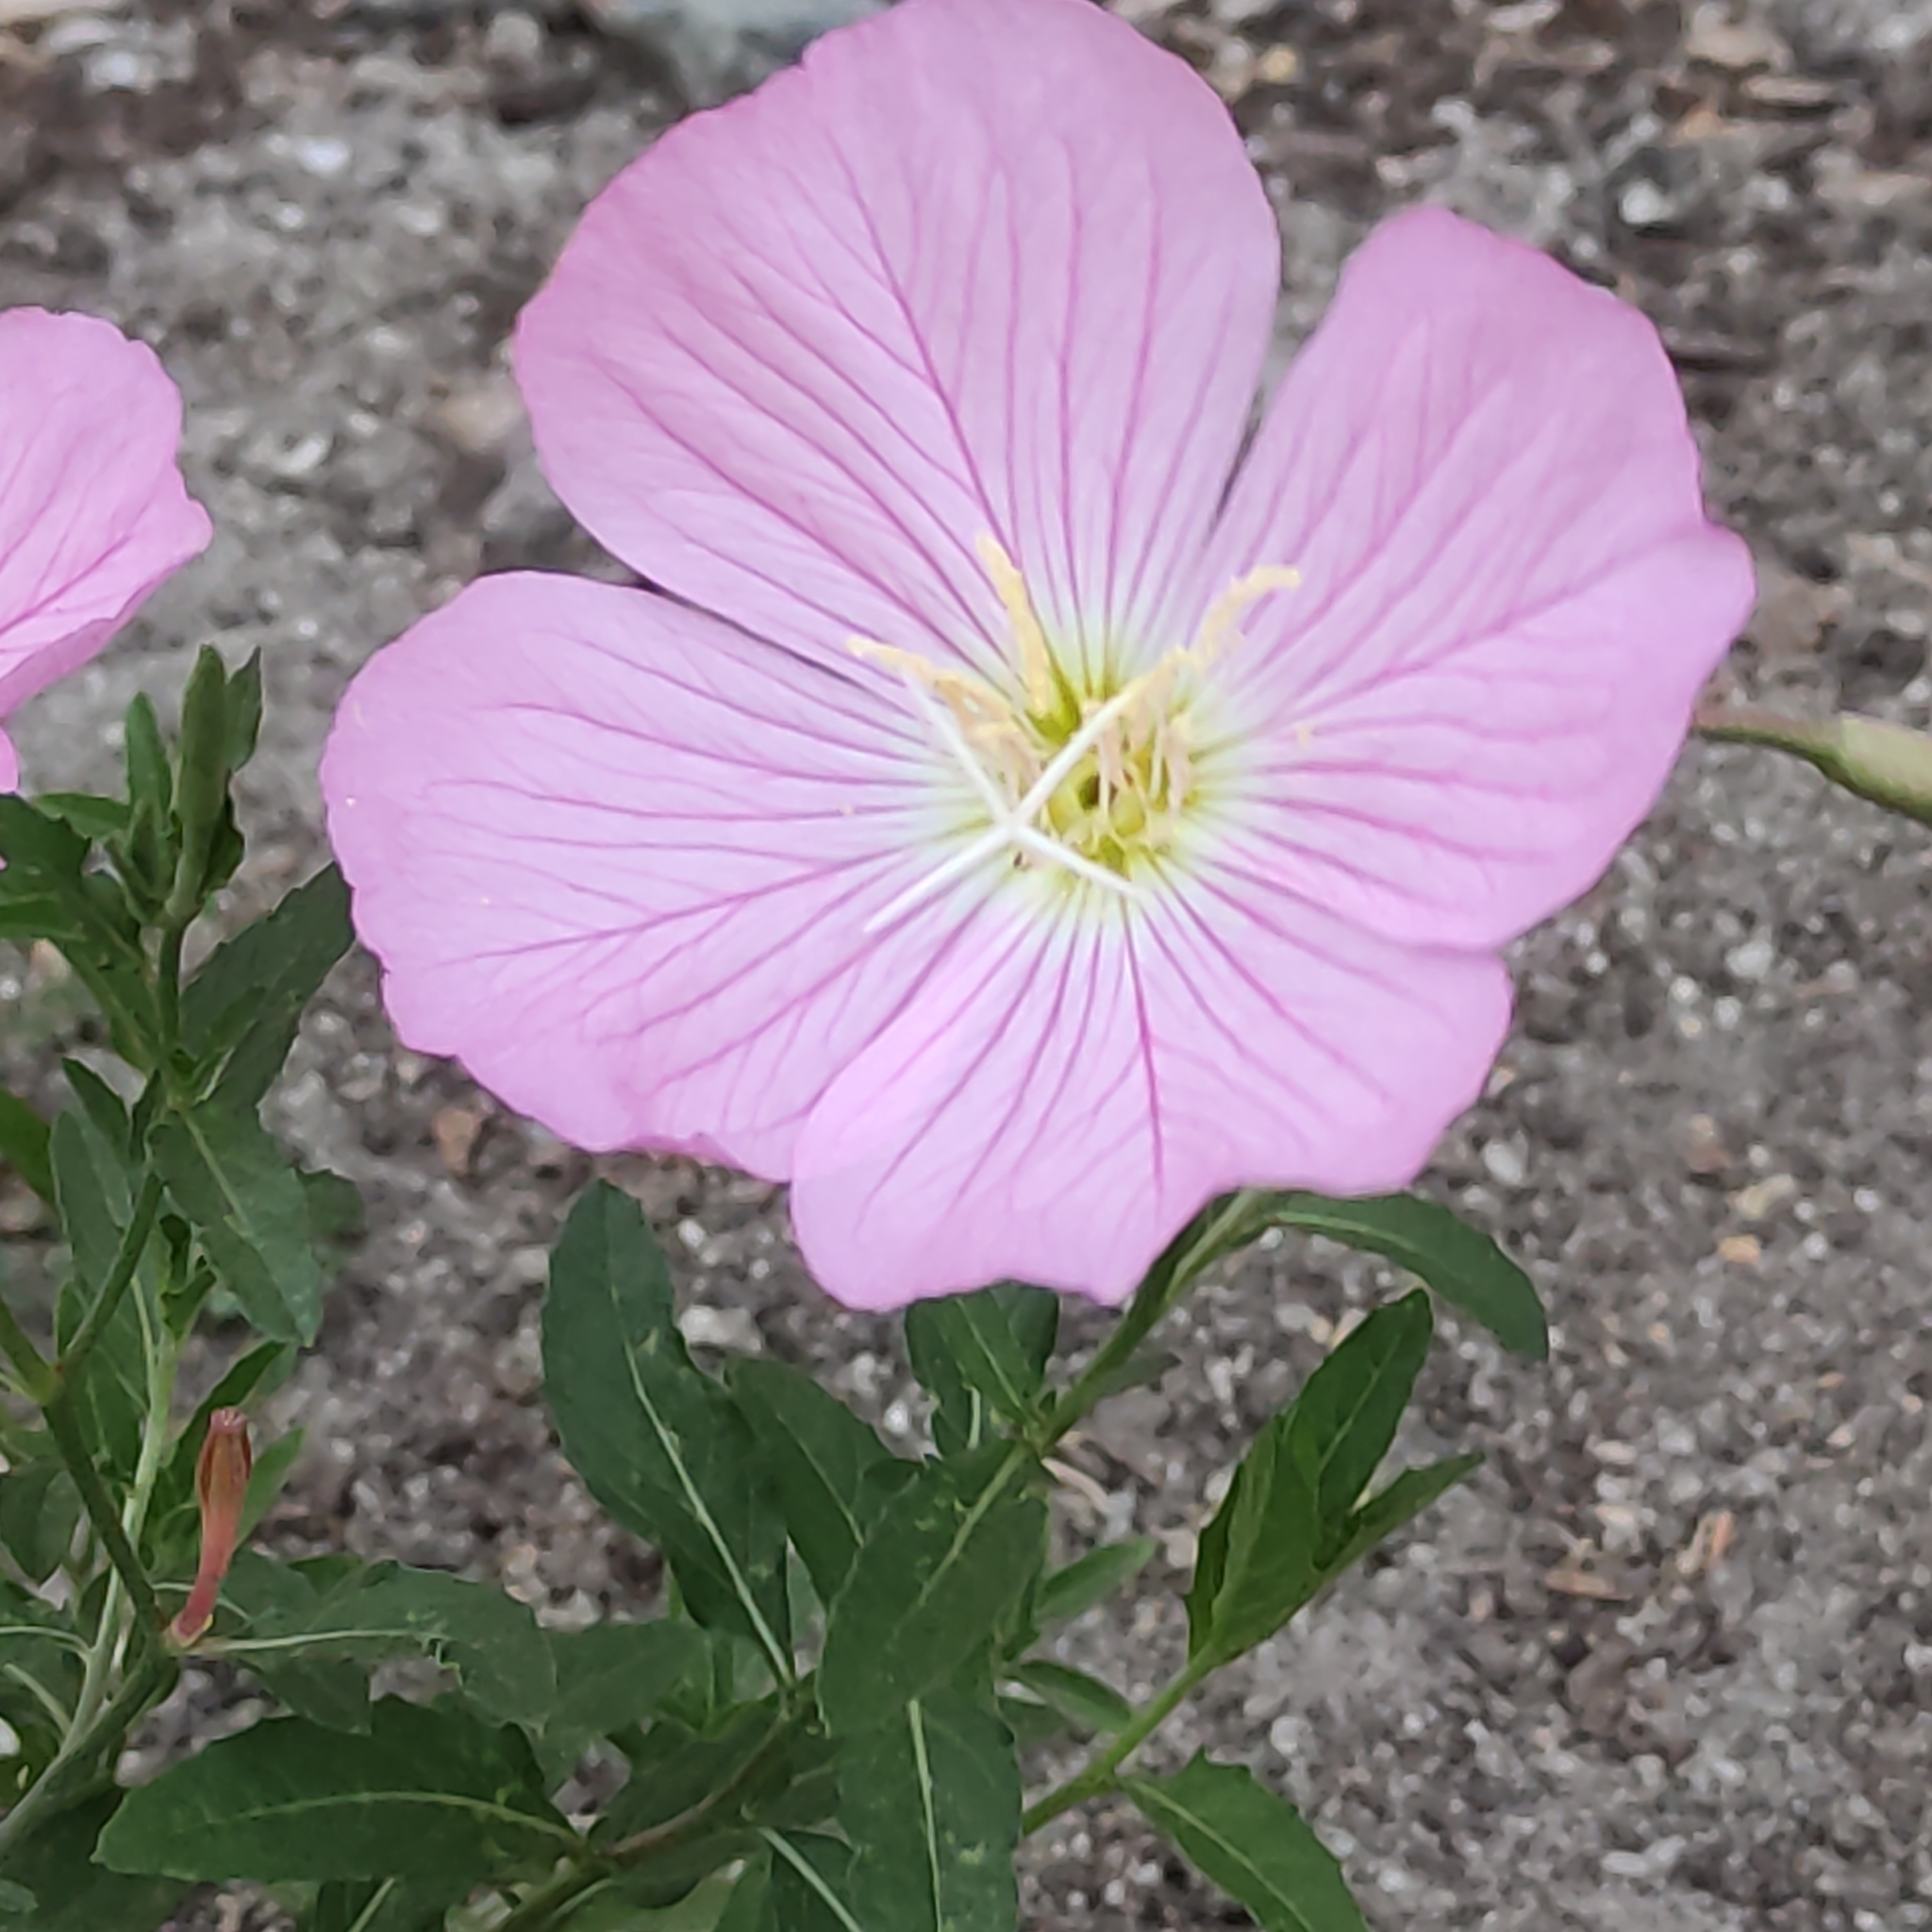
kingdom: Plantae
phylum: Tracheophyta
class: Magnoliopsida
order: Myrtales
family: Onagraceae
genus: Oenothera
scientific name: Oenothera speciosa
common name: White evening-primrose
